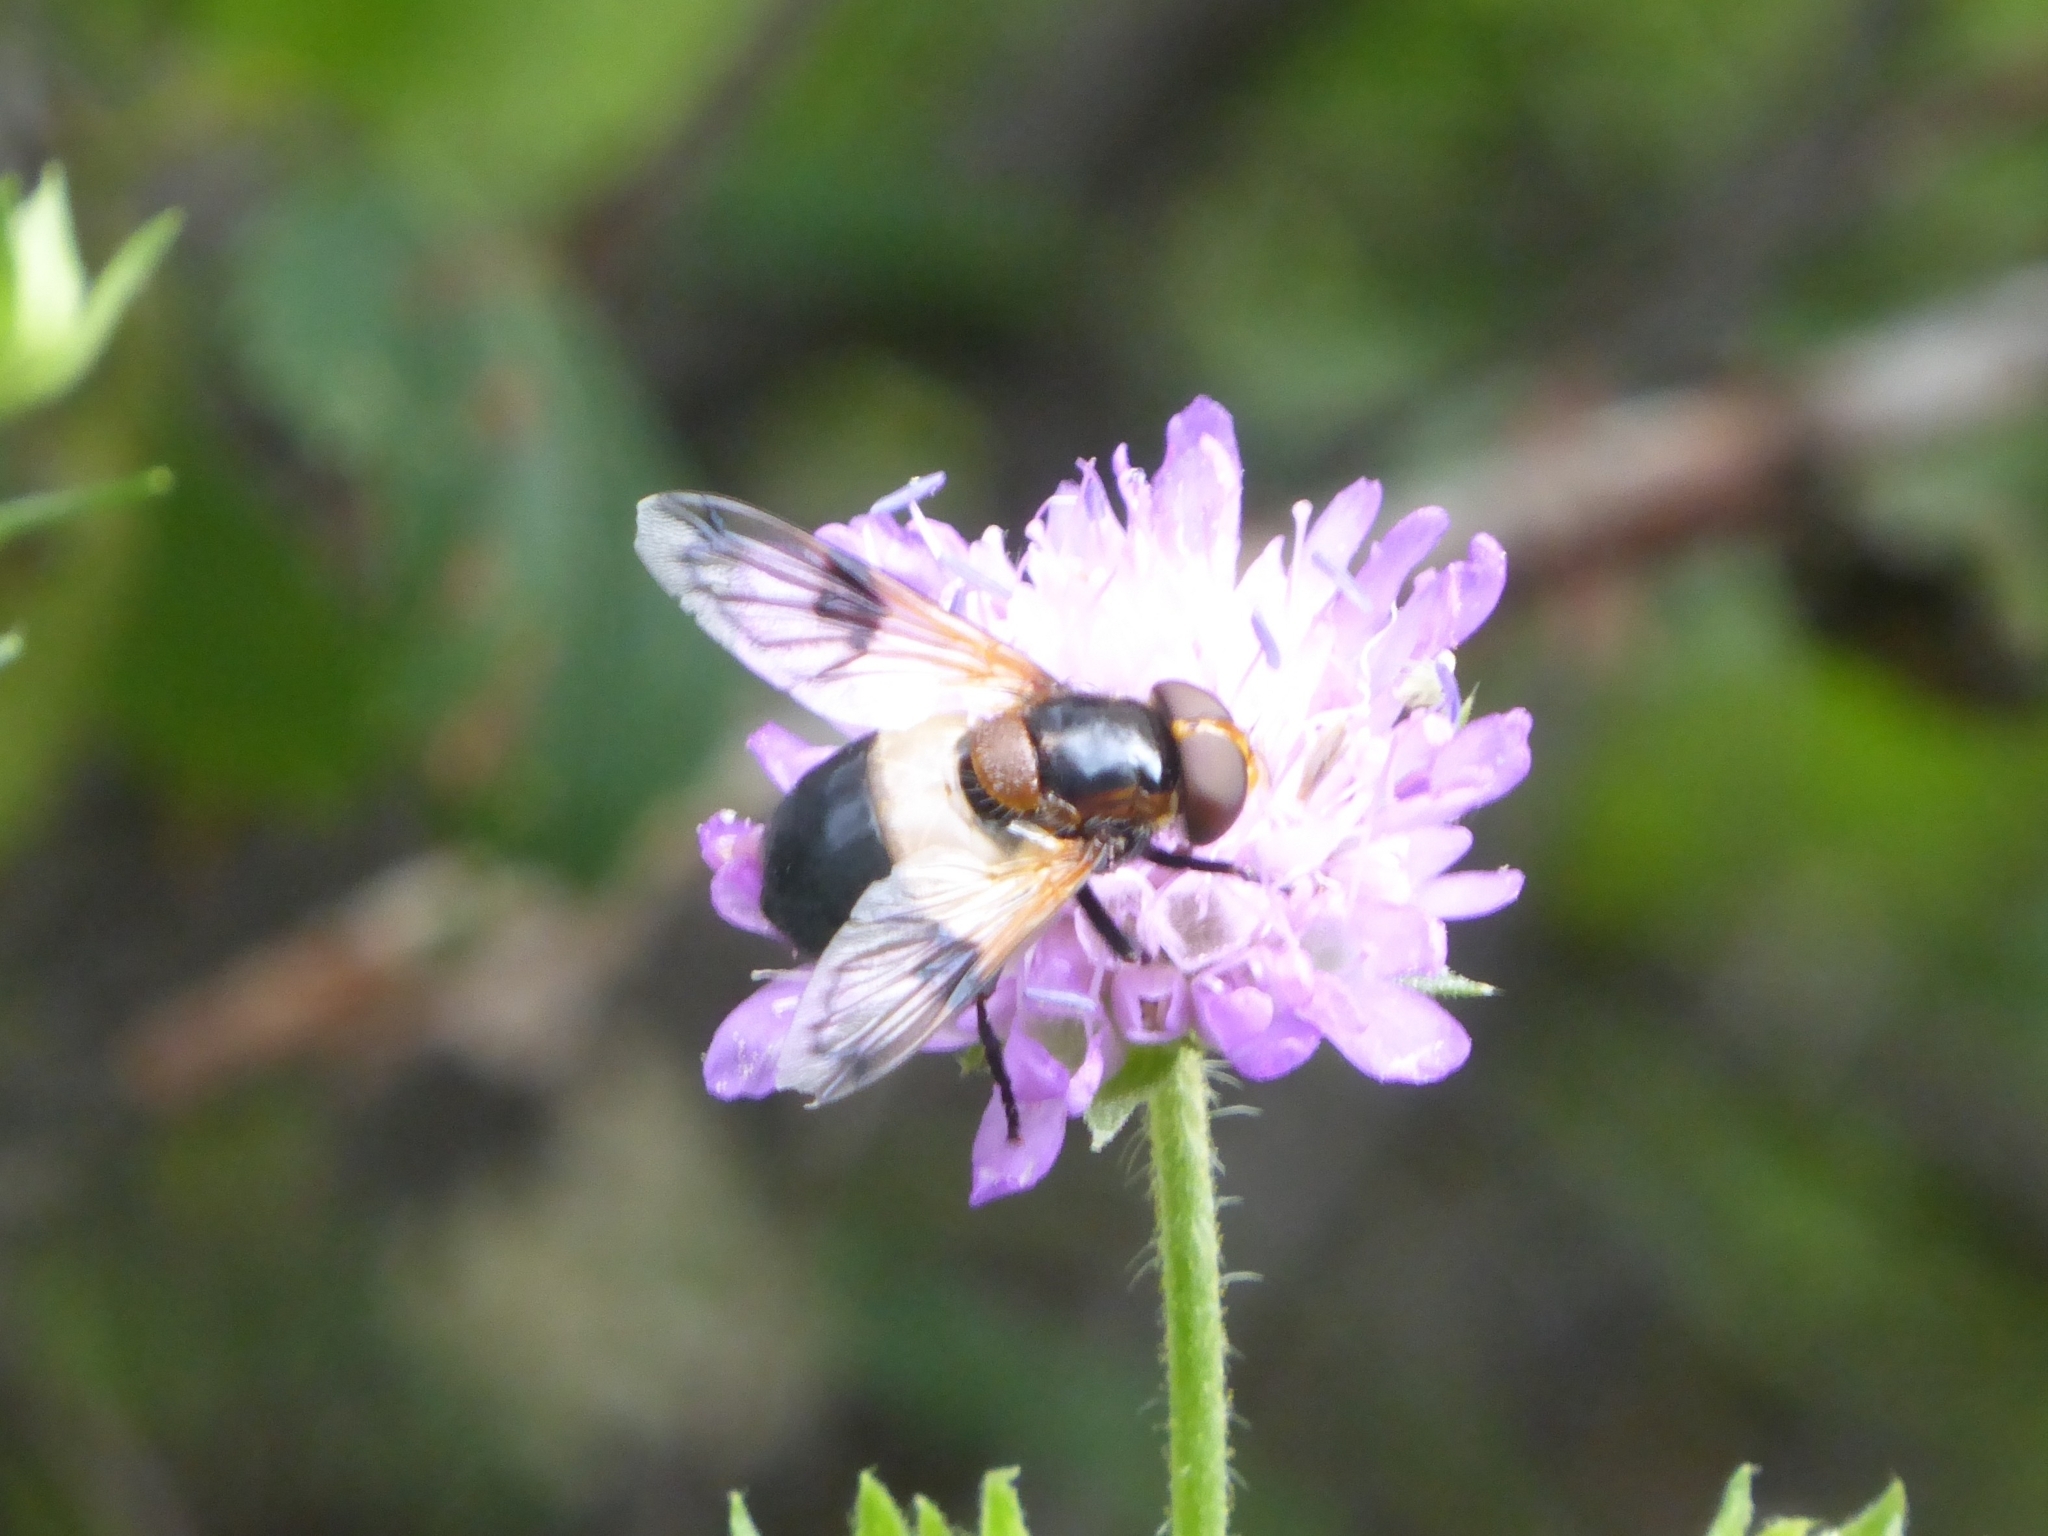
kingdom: Animalia
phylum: Arthropoda
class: Insecta
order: Diptera
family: Syrphidae
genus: Volucella
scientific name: Volucella pellucens
